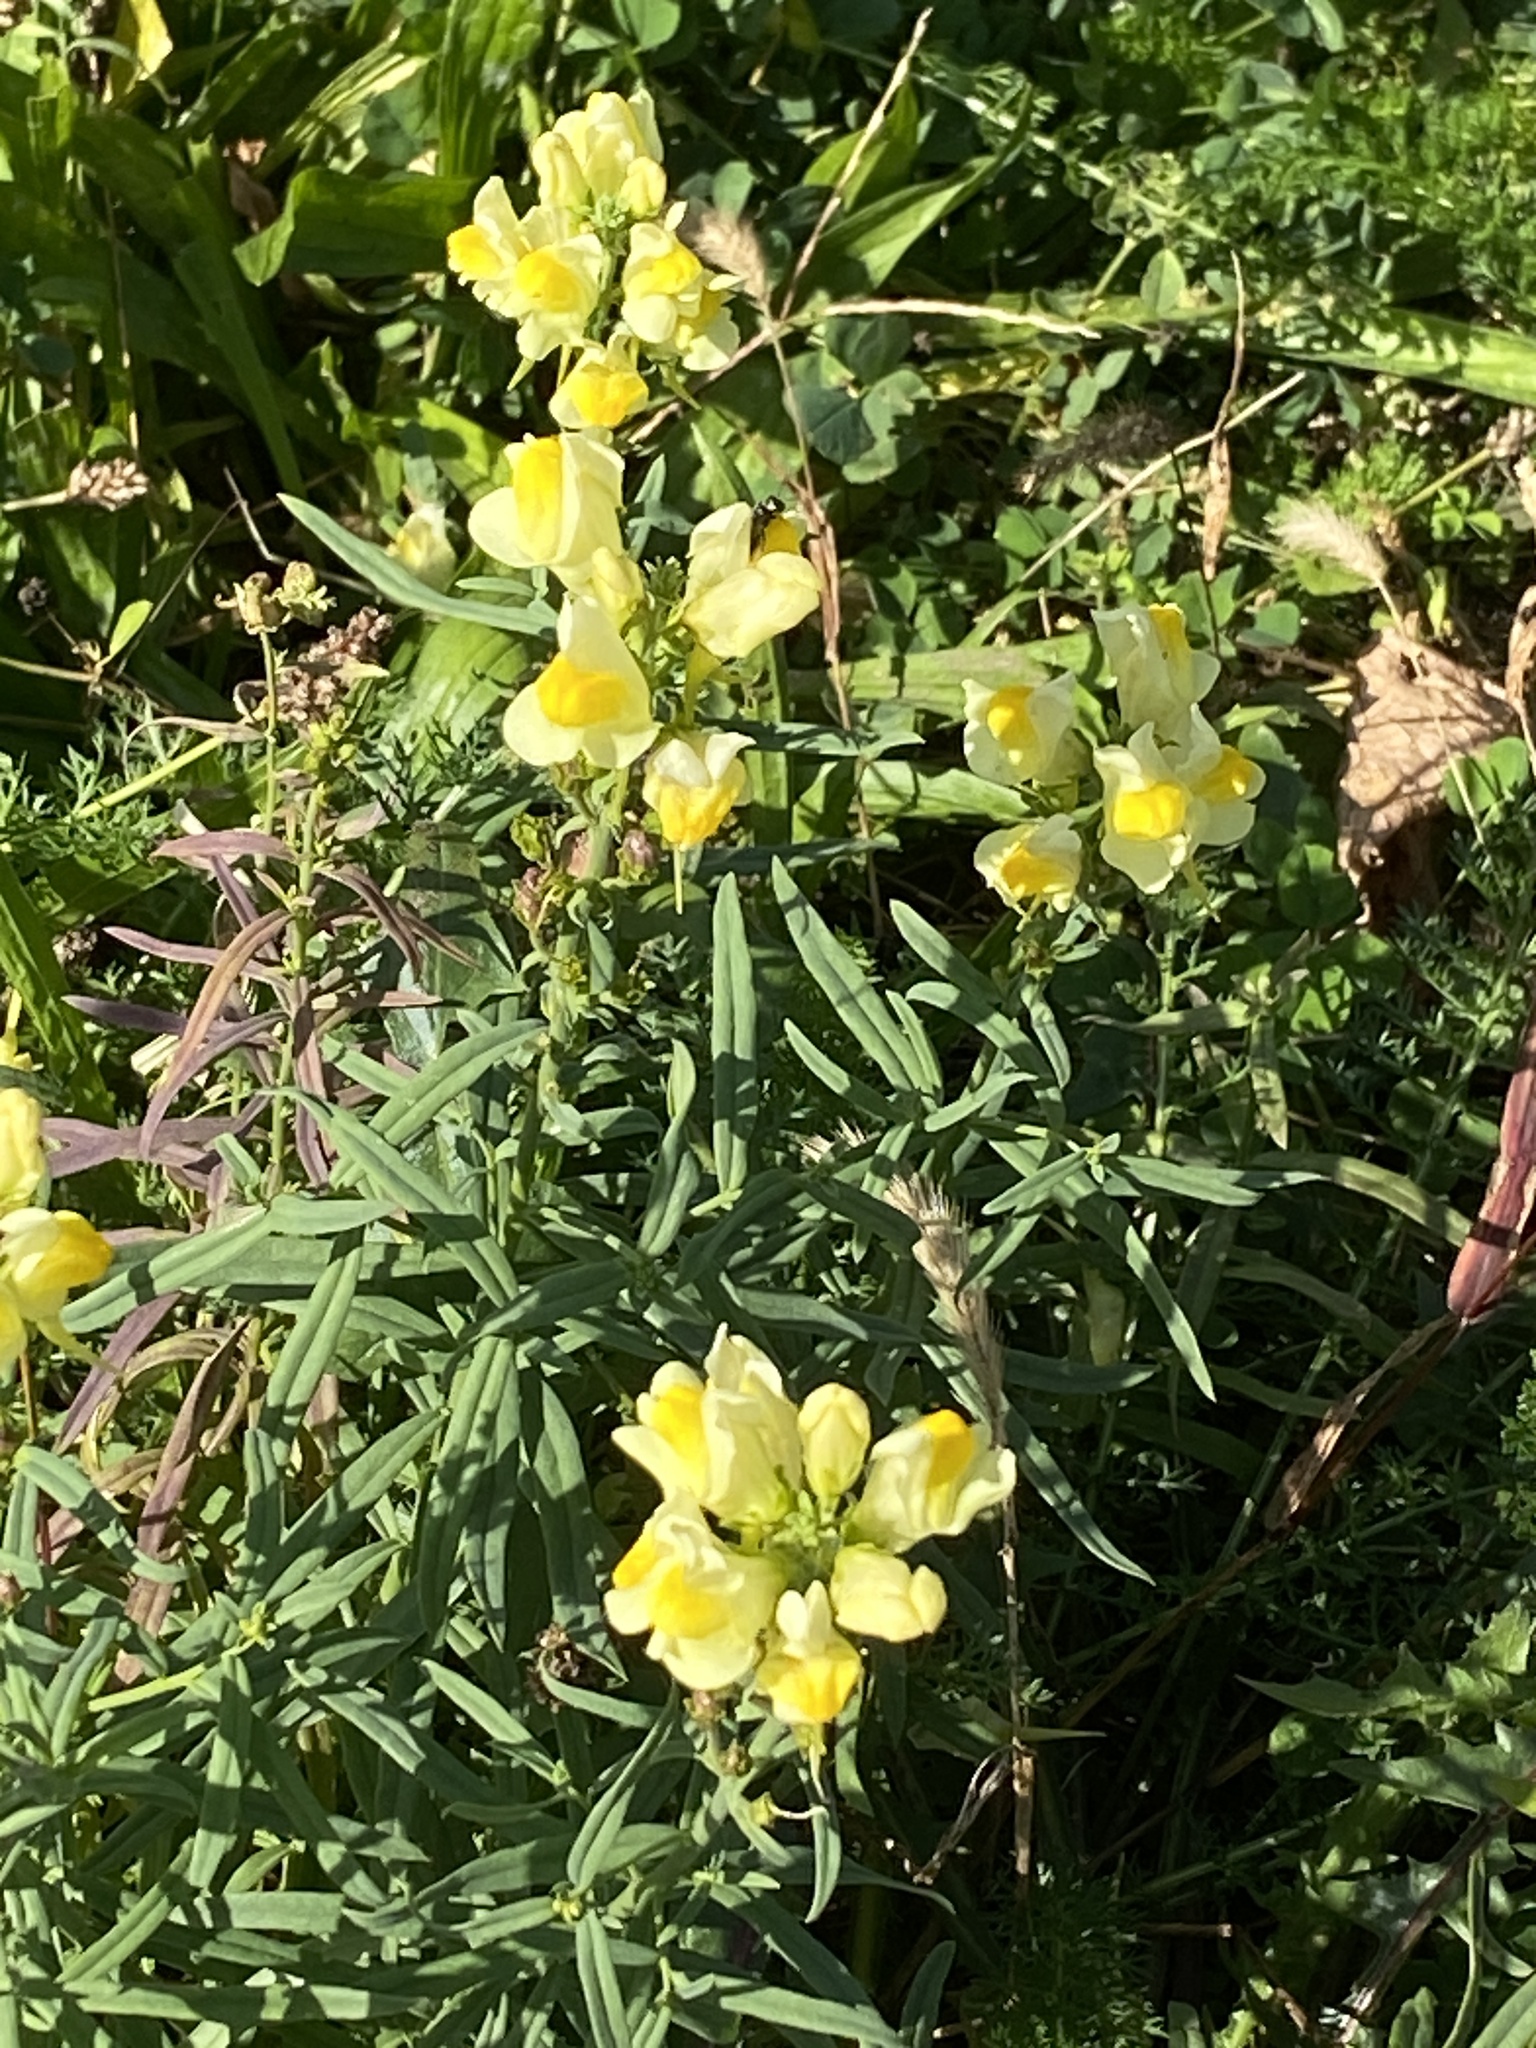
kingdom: Plantae
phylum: Tracheophyta
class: Magnoliopsida
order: Lamiales
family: Plantaginaceae
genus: Linaria
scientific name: Linaria vulgaris
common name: Butter and eggs
